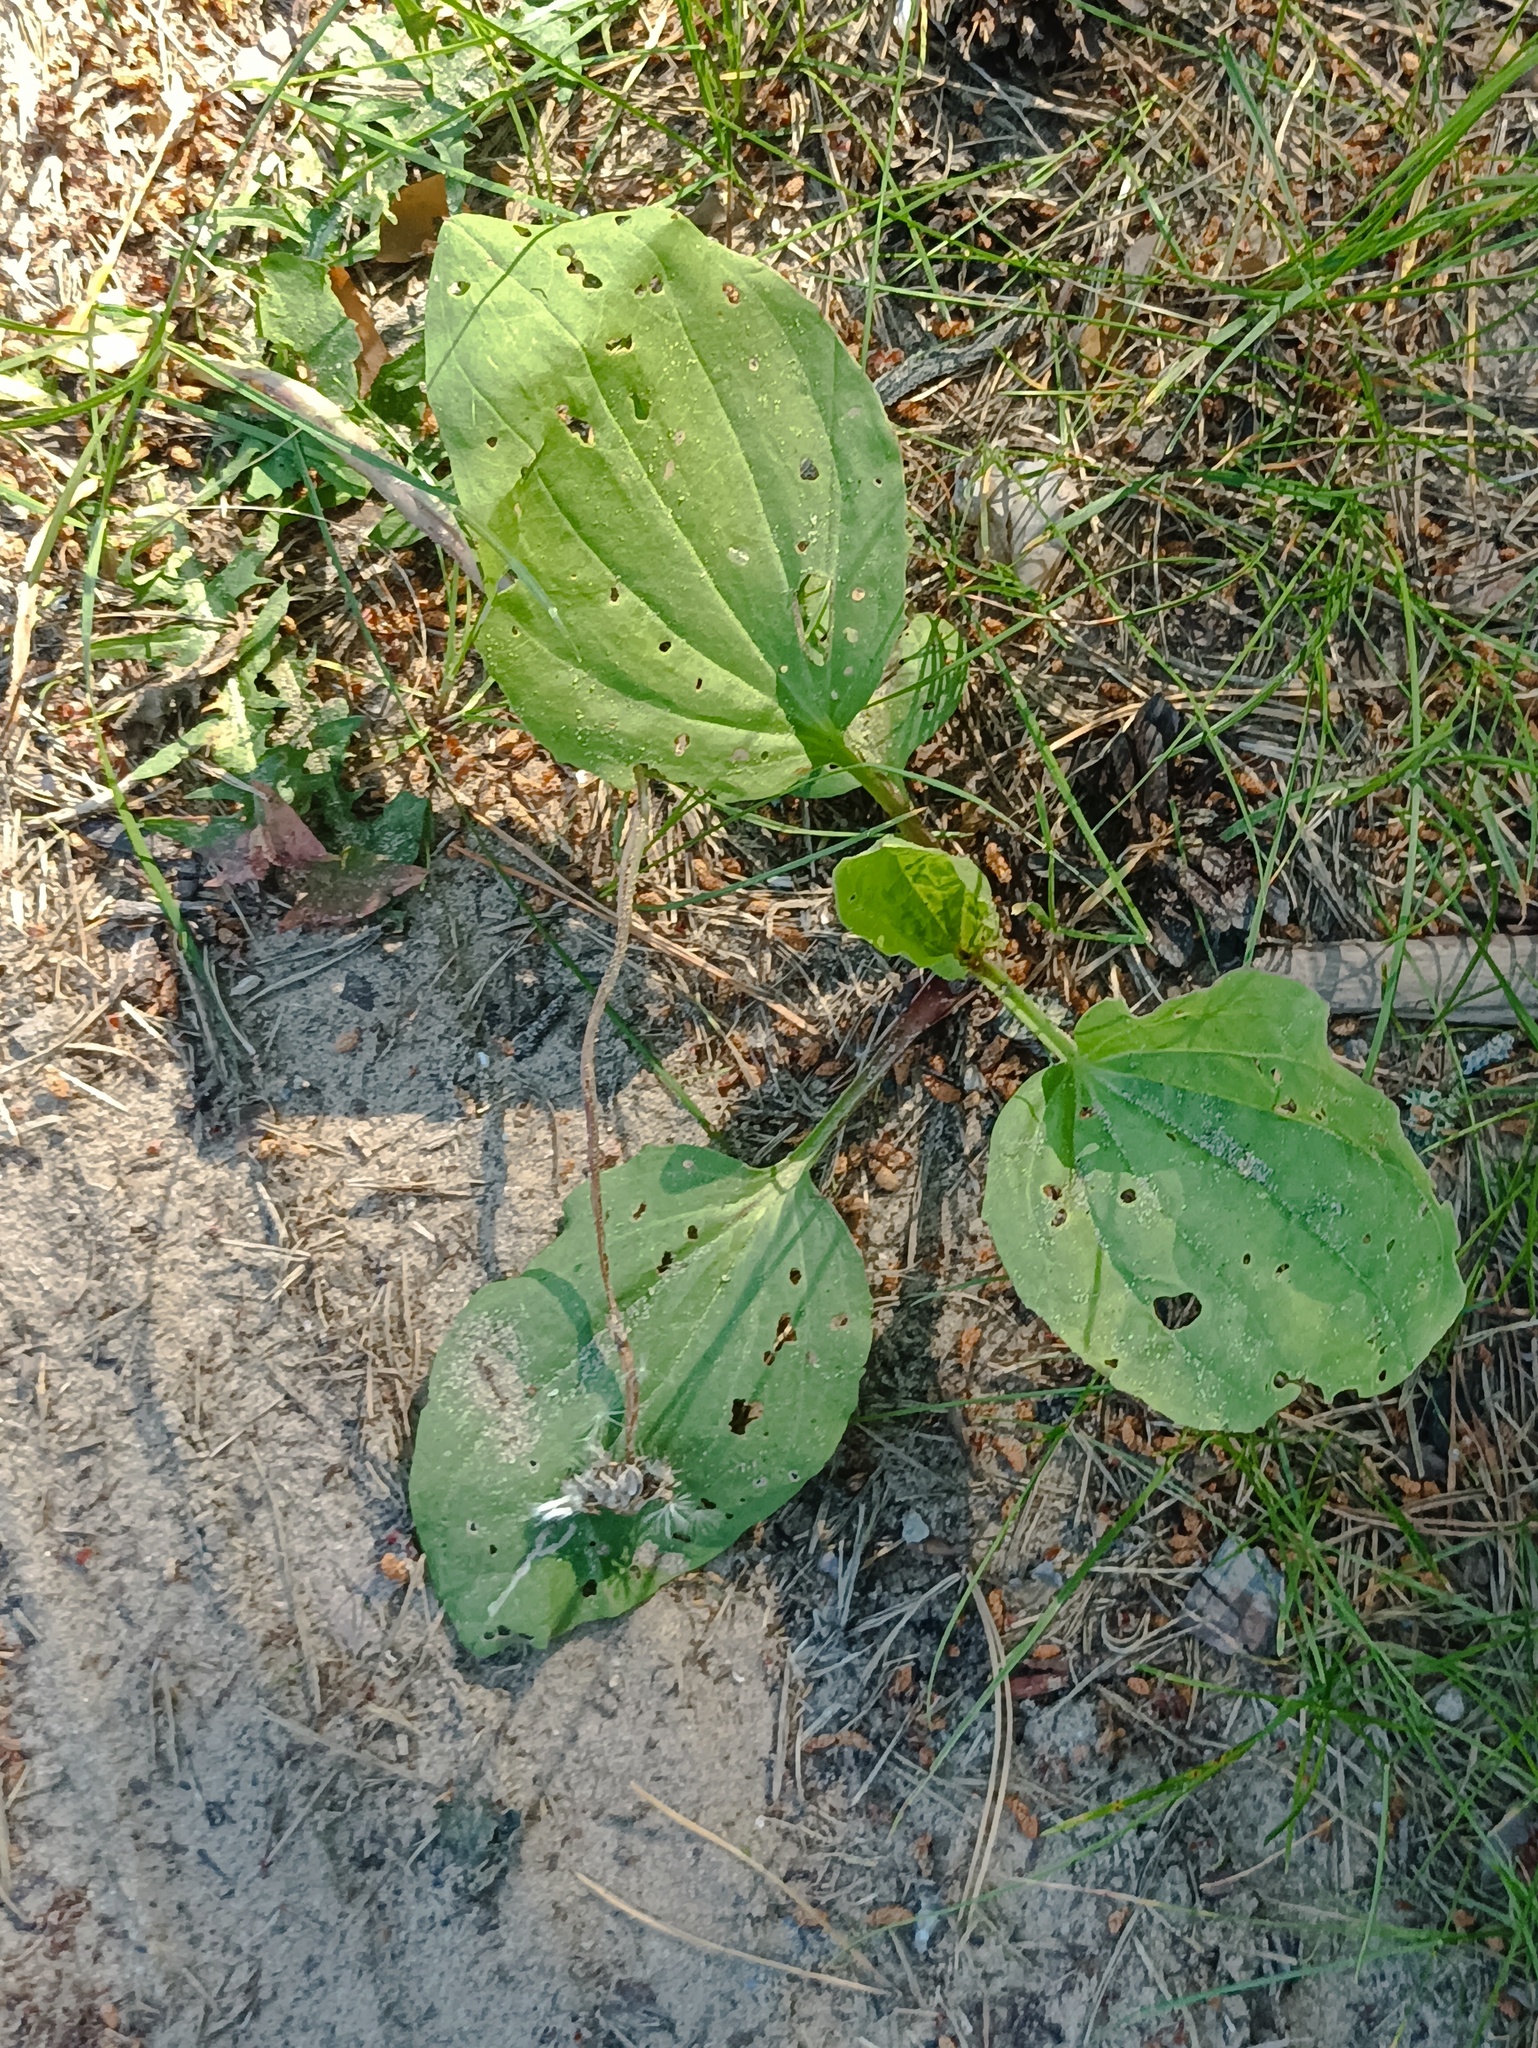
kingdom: Plantae
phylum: Tracheophyta
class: Magnoliopsida
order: Lamiales
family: Plantaginaceae
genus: Plantago
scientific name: Plantago major
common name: Common plantain
